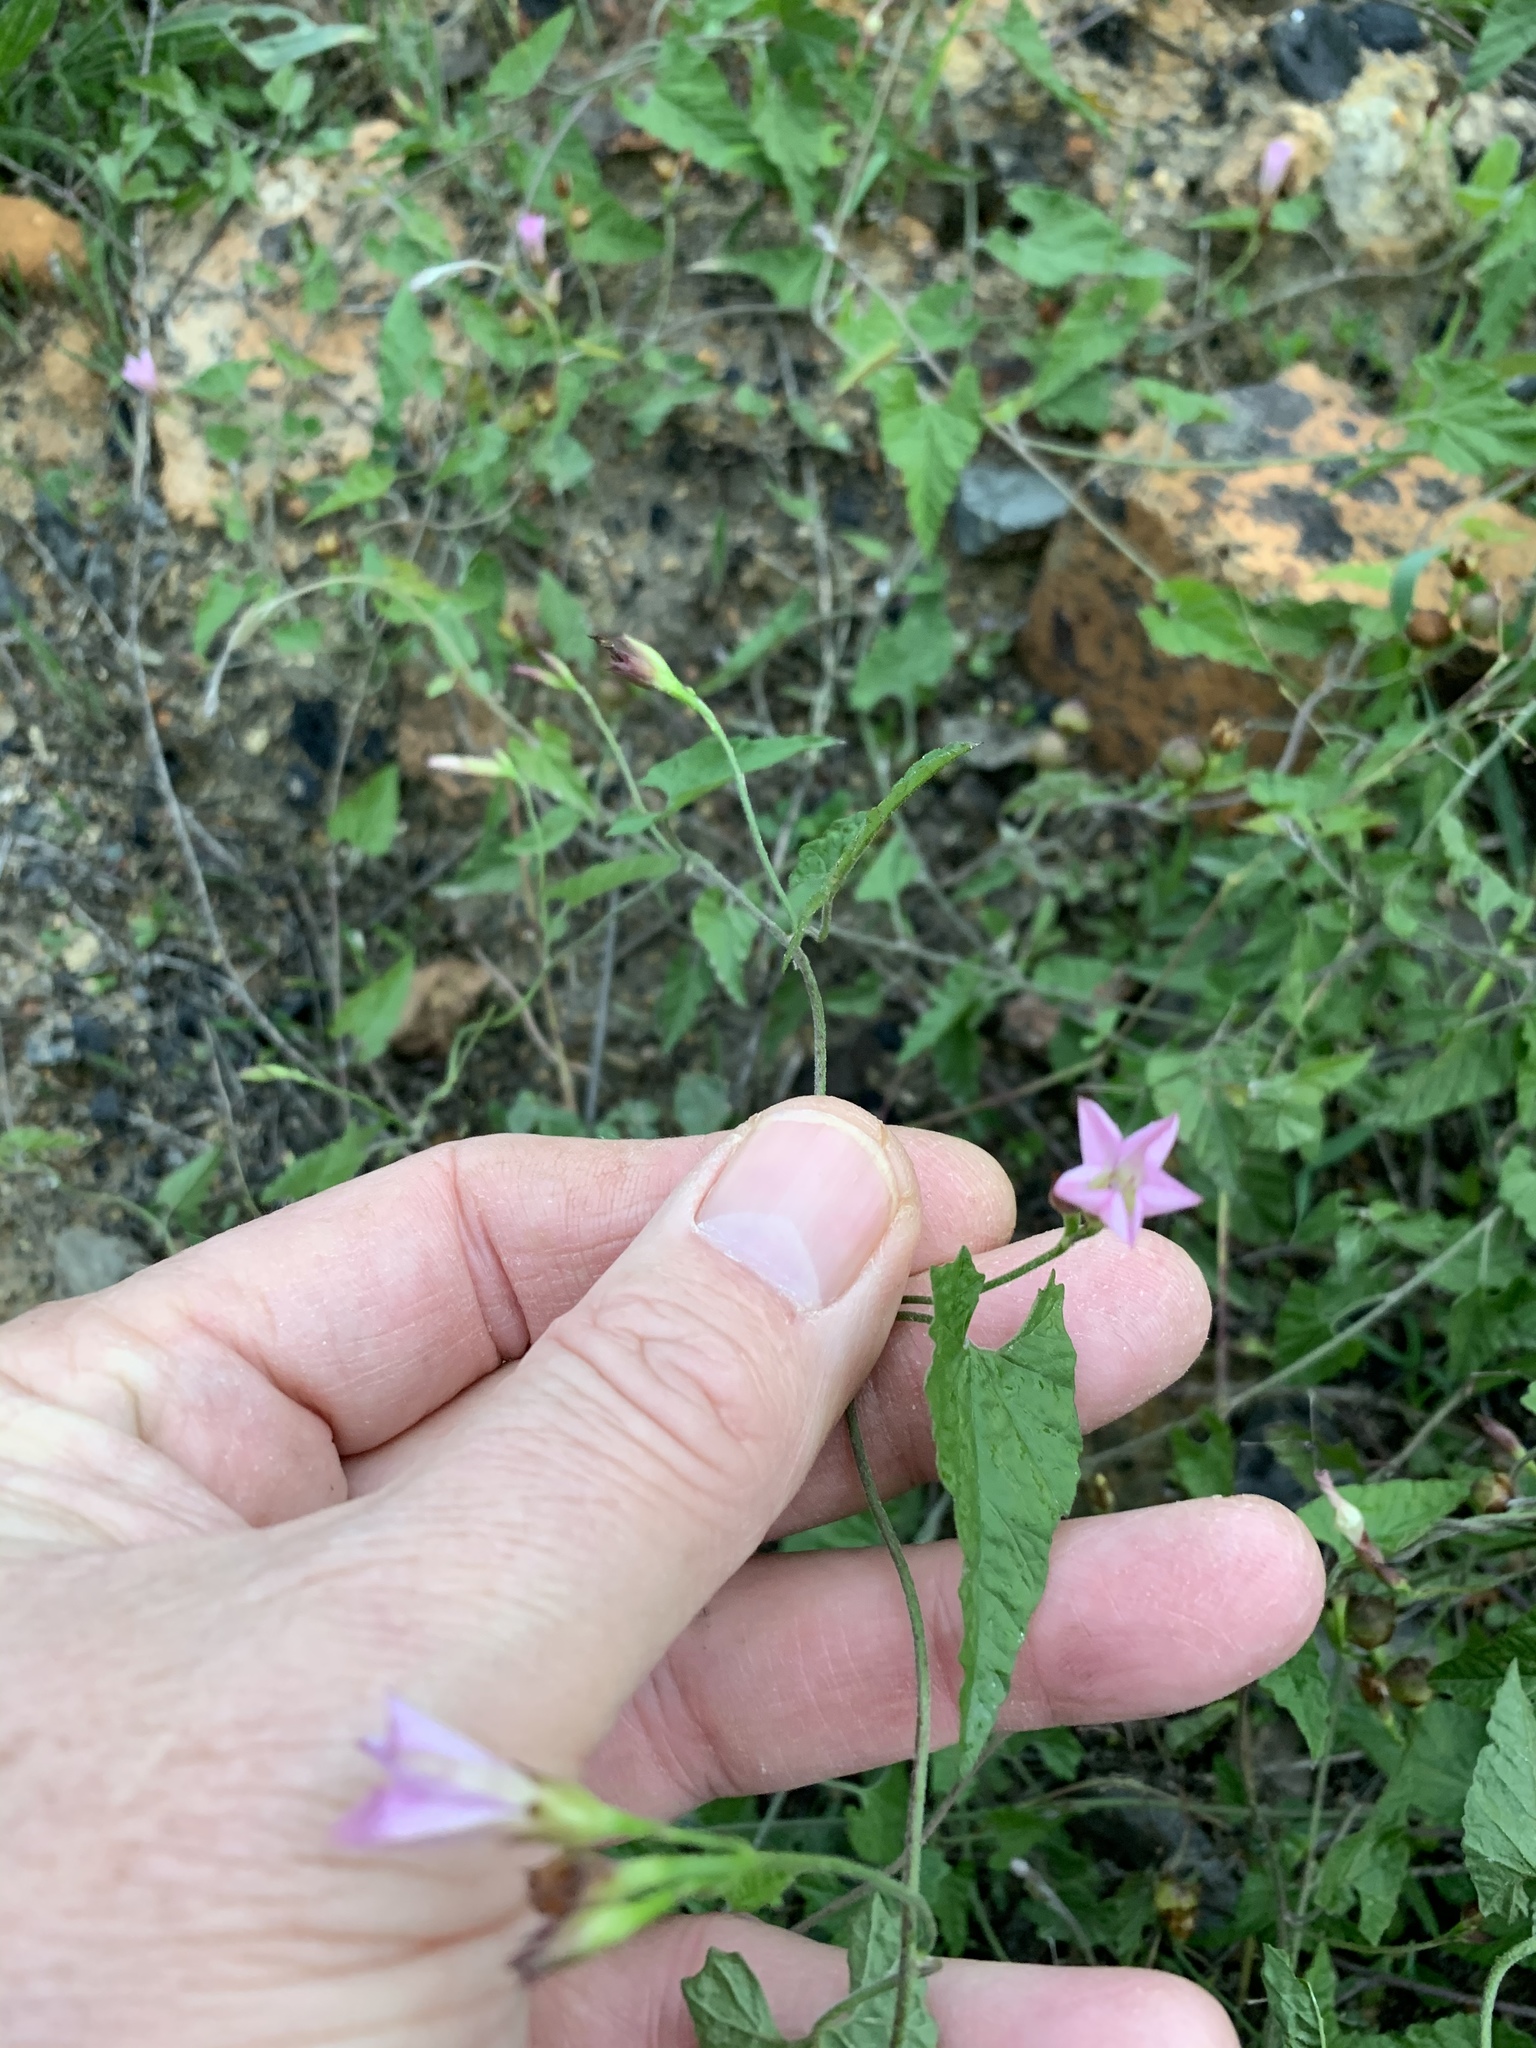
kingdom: Plantae
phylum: Tracheophyta
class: Magnoliopsida
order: Solanales
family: Convolvulaceae
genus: Convolvulus
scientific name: Convolvulus farinosus
